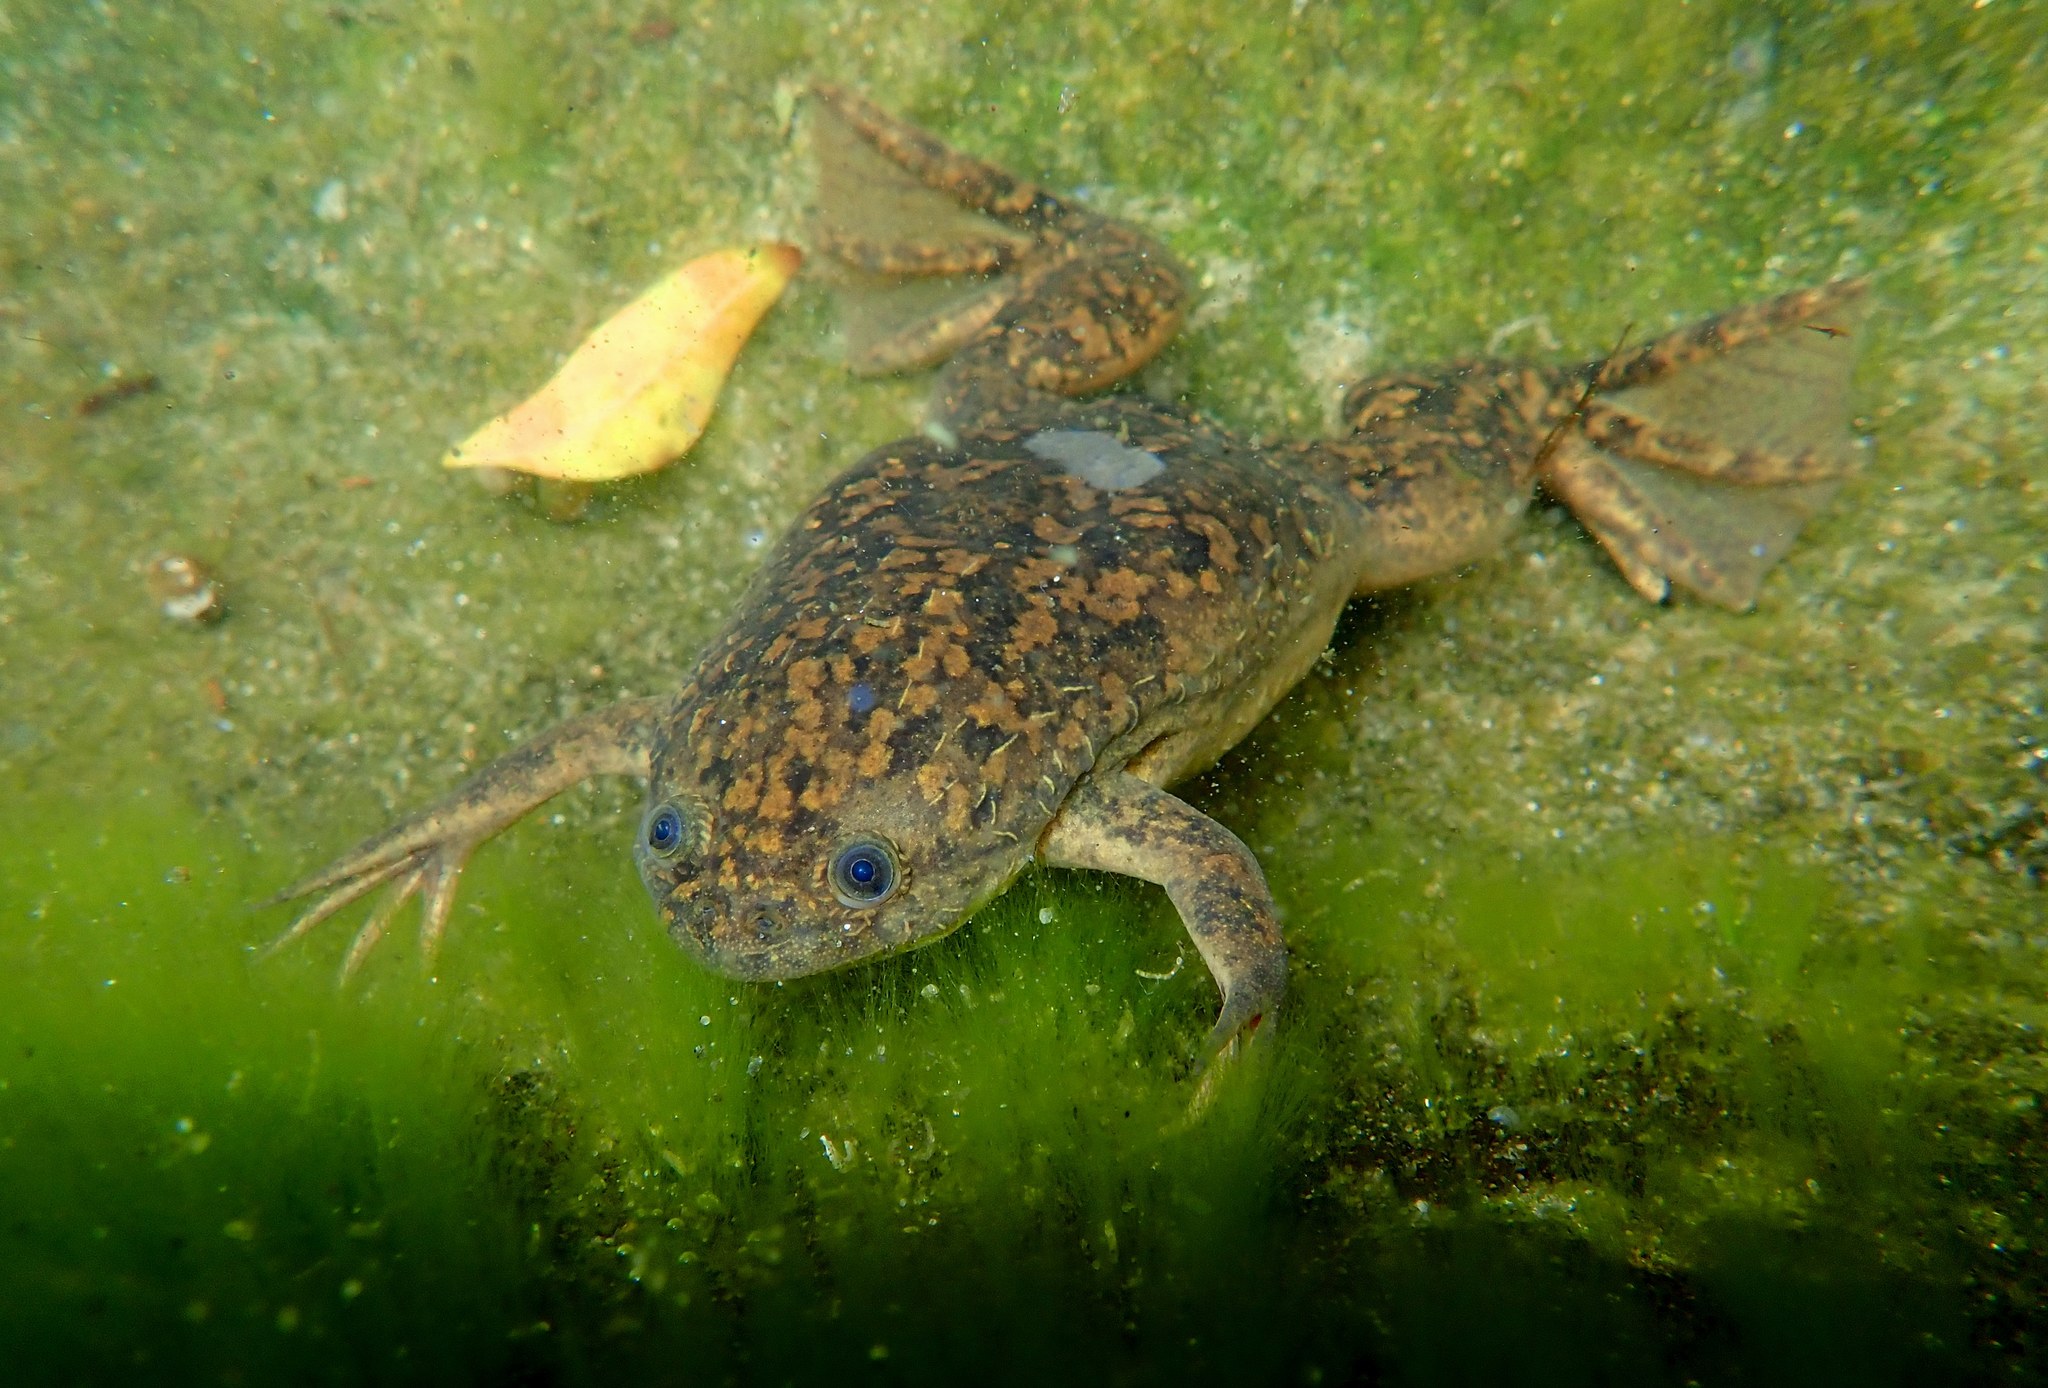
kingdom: Animalia
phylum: Chordata
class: Amphibia
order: Anura
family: Pipidae
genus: Xenopus
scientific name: Xenopus laevis
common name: African clawed frog
